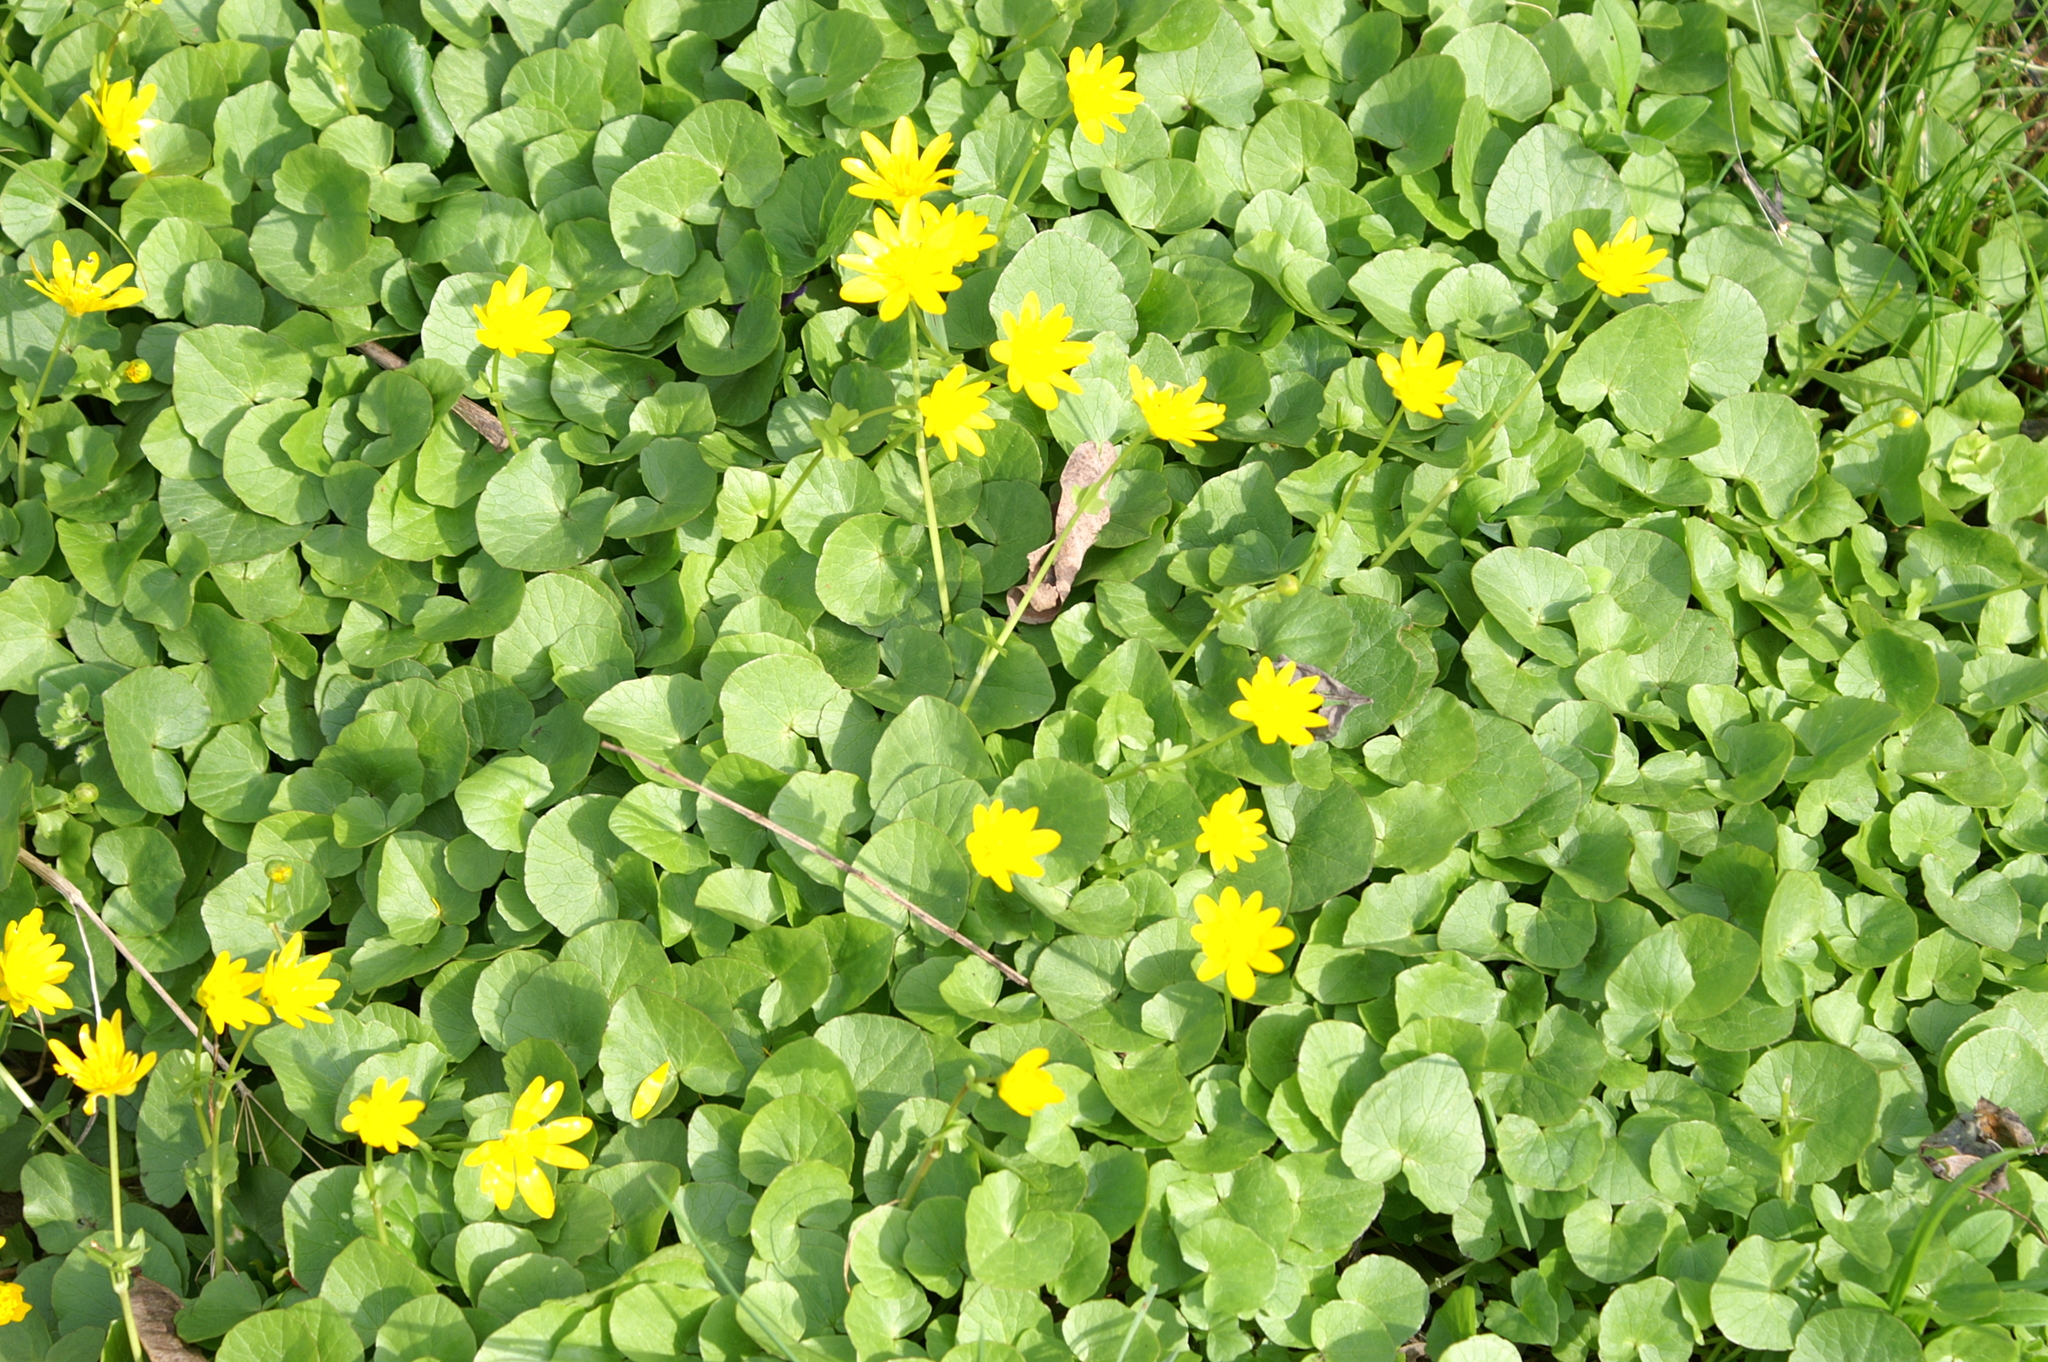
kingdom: Plantae
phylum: Tracheophyta
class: Magnoliopsida
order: Ranunculales
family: Ranunculaceae
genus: Ficaria
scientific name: Ficaria verna
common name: Lesser celandine
